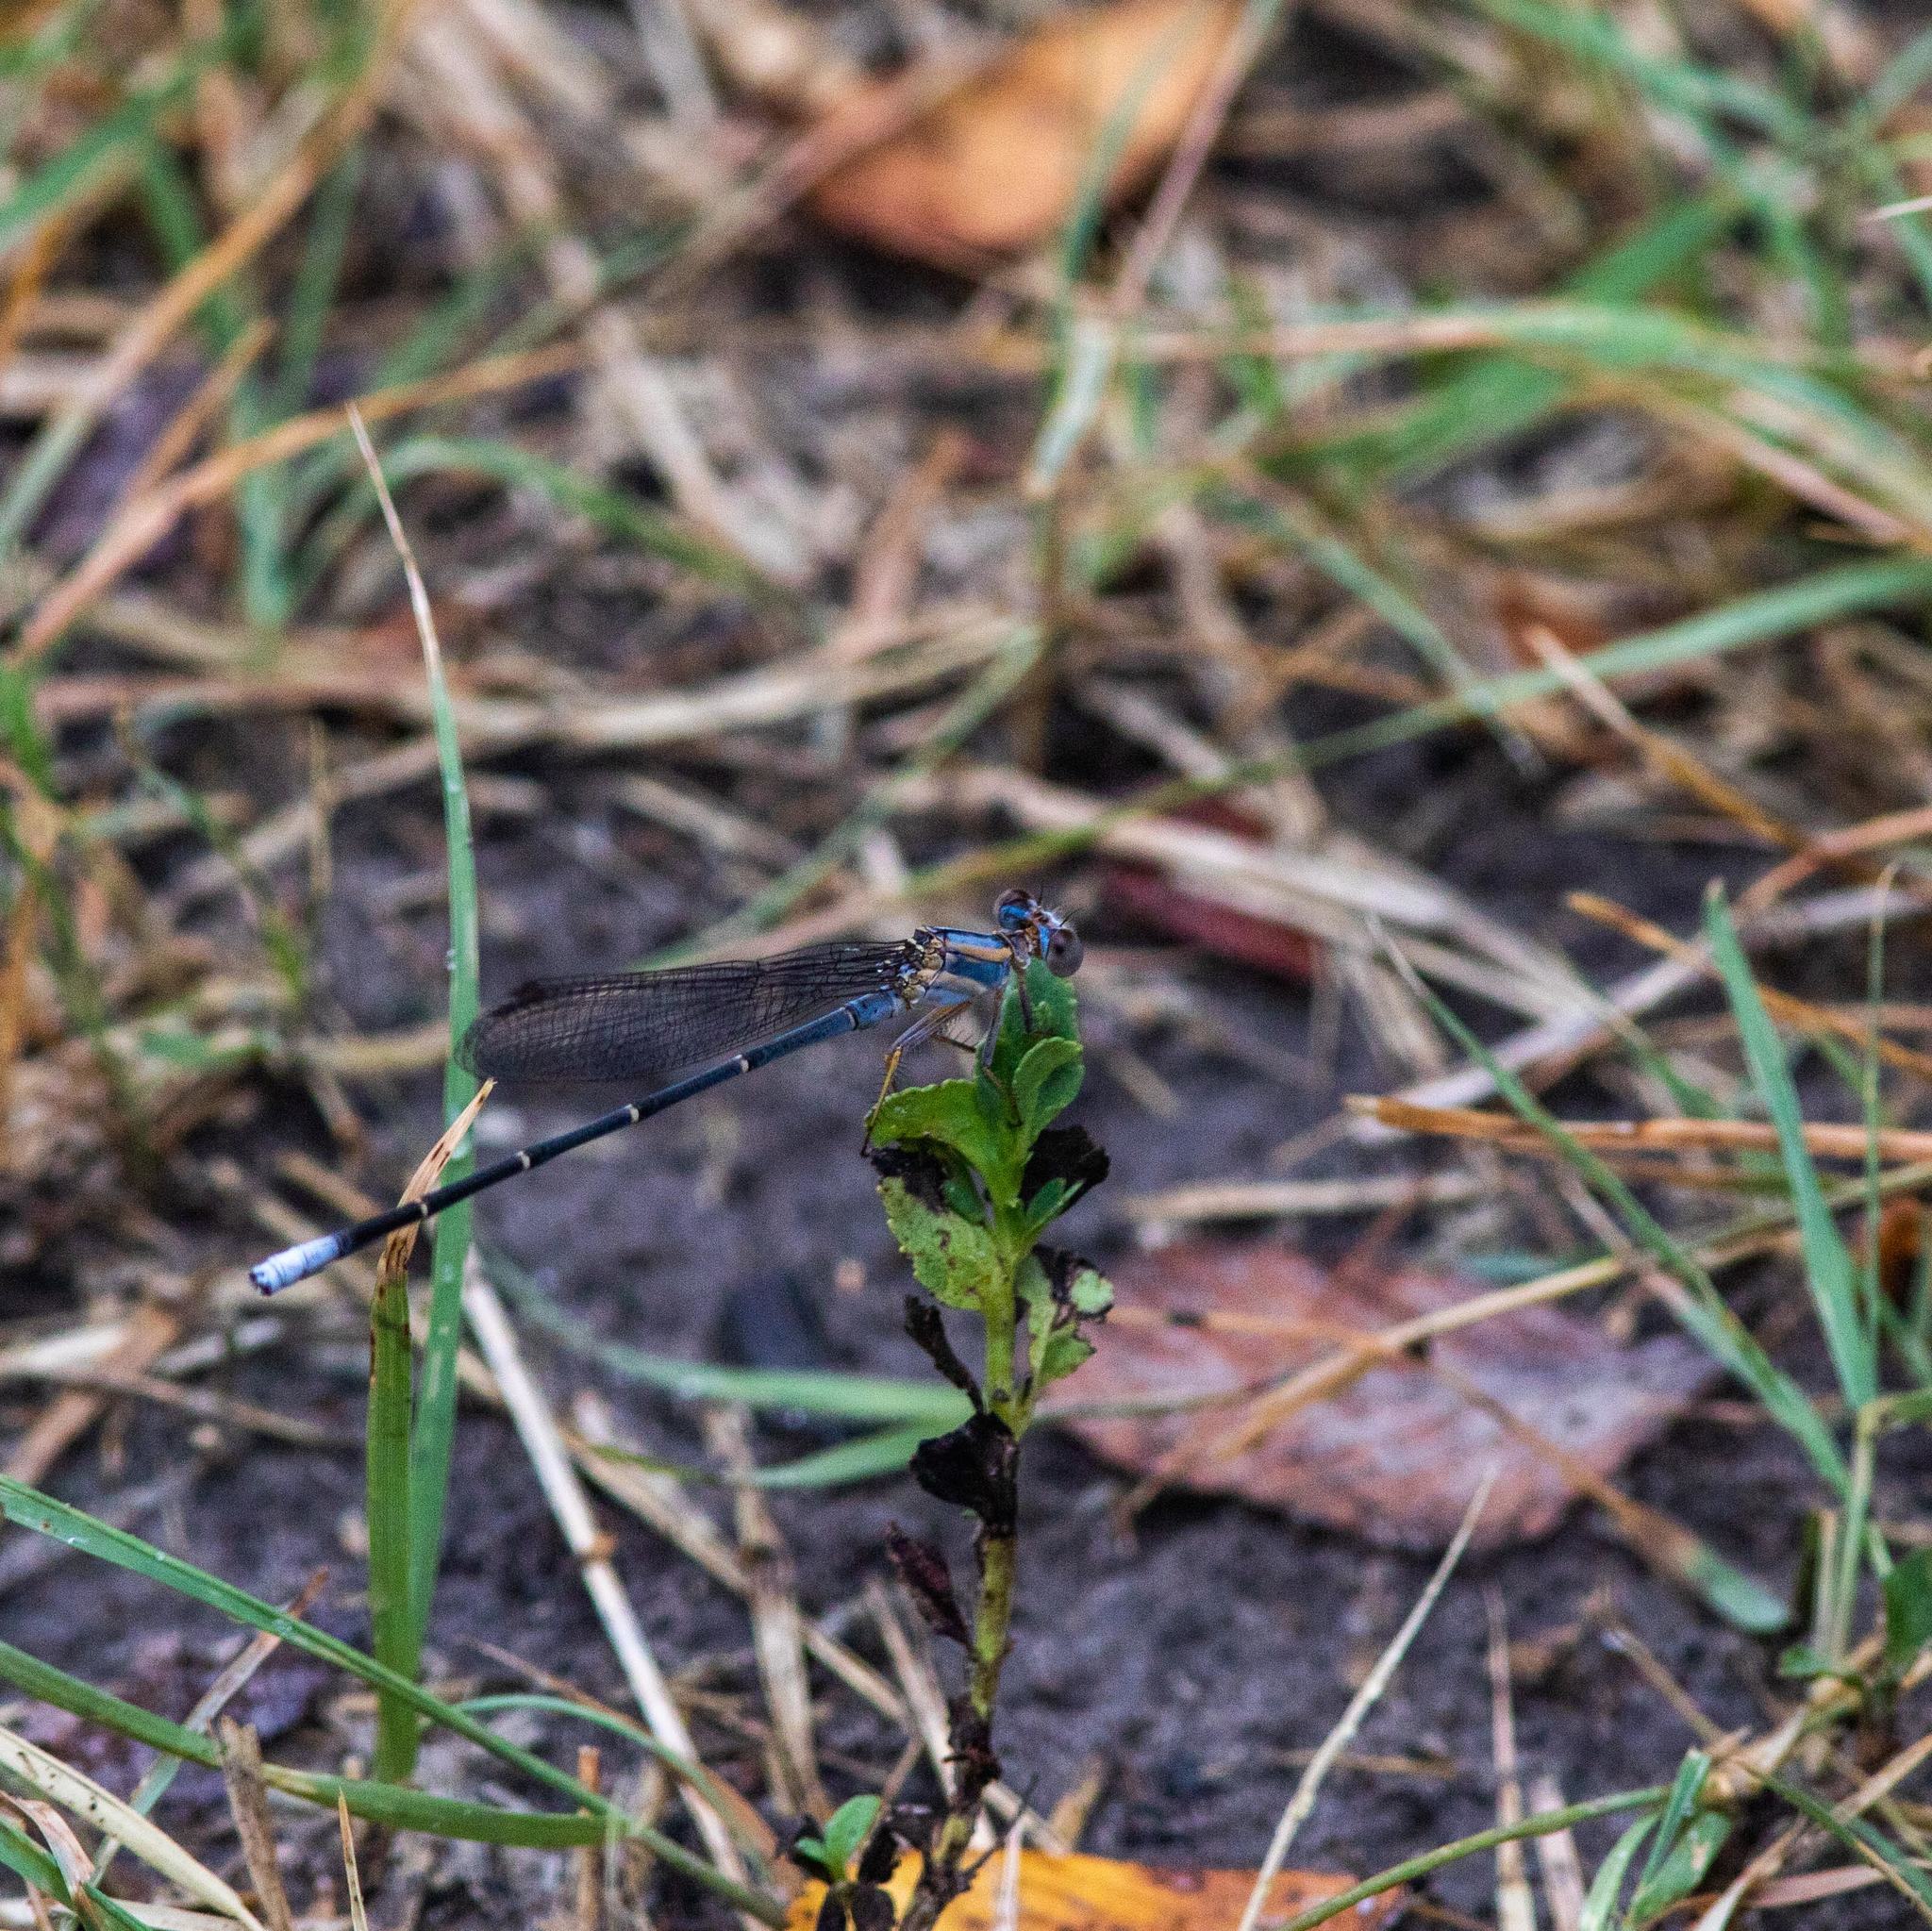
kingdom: Animalia
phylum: Arthropoda
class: Insecta
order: Odonata
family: Coenagrionidae
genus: Argia
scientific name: Argia moesta
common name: Powdered dancer
